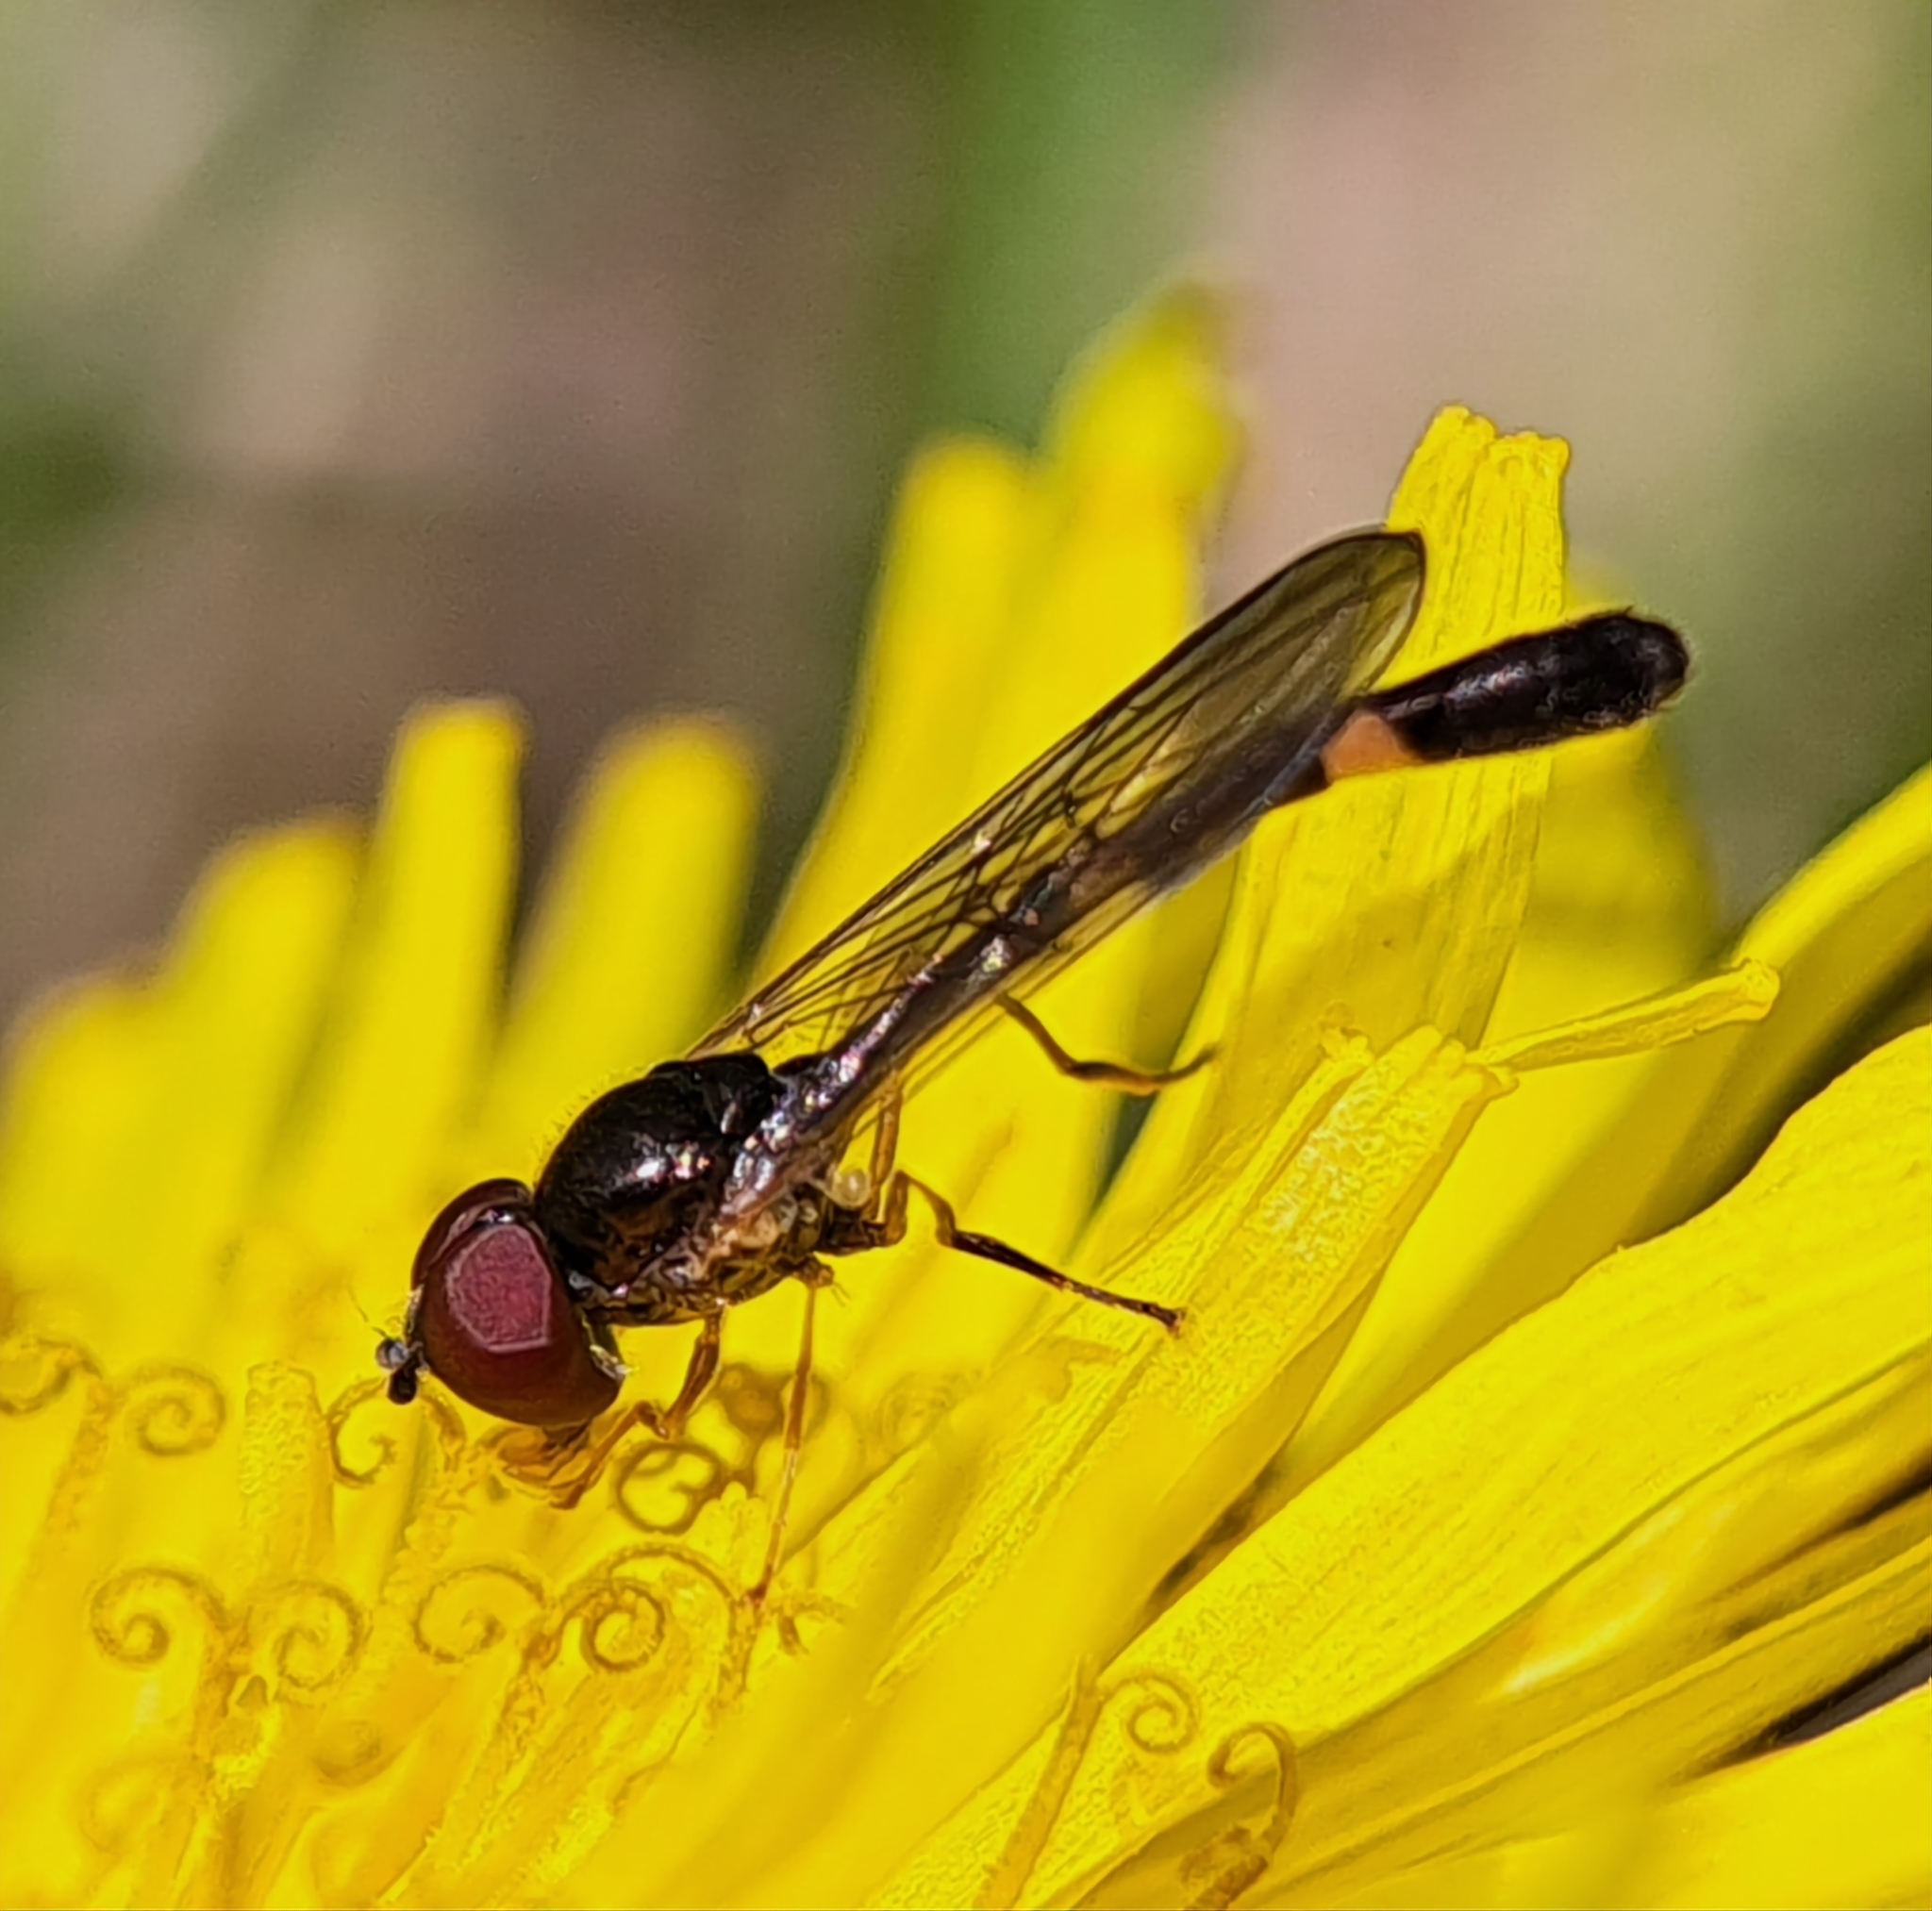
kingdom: Animalia
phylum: Arthropoda
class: Insecta
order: Diptera
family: Syrphidae
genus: Baccha
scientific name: Baccha elongata
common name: Common dainty
